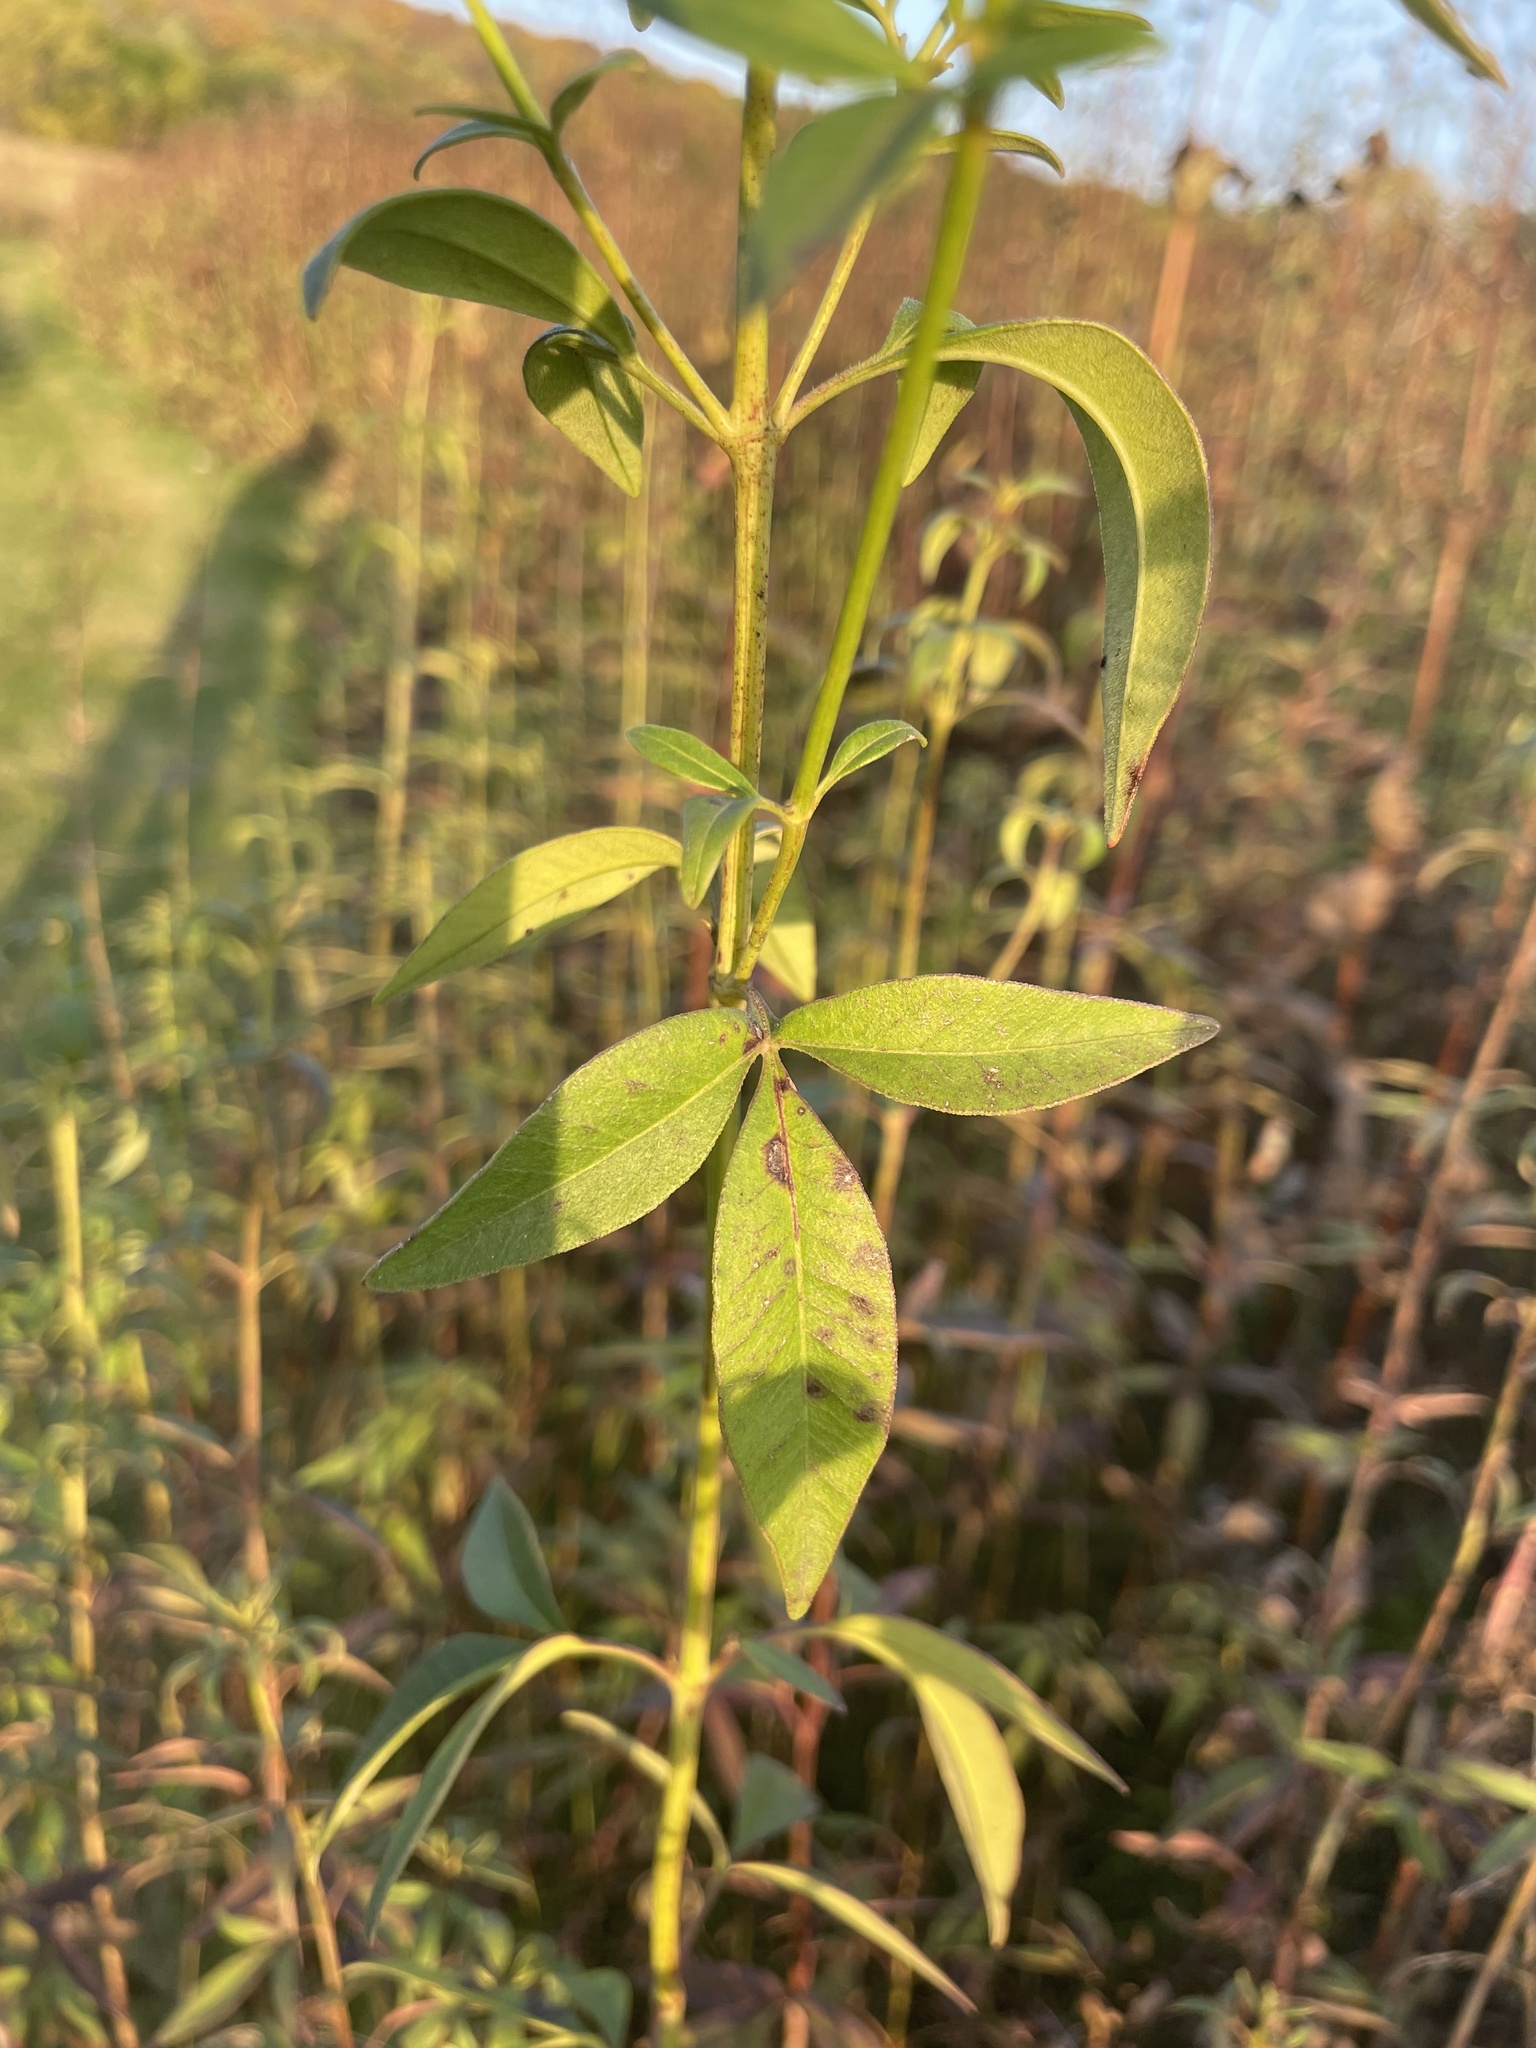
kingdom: Plantae
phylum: Tracheophyta
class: Magnoliopsida
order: Asterales
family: Asteraceae
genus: Coreopsis
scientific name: Coreopsis tripteris
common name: Tall coreopsis
